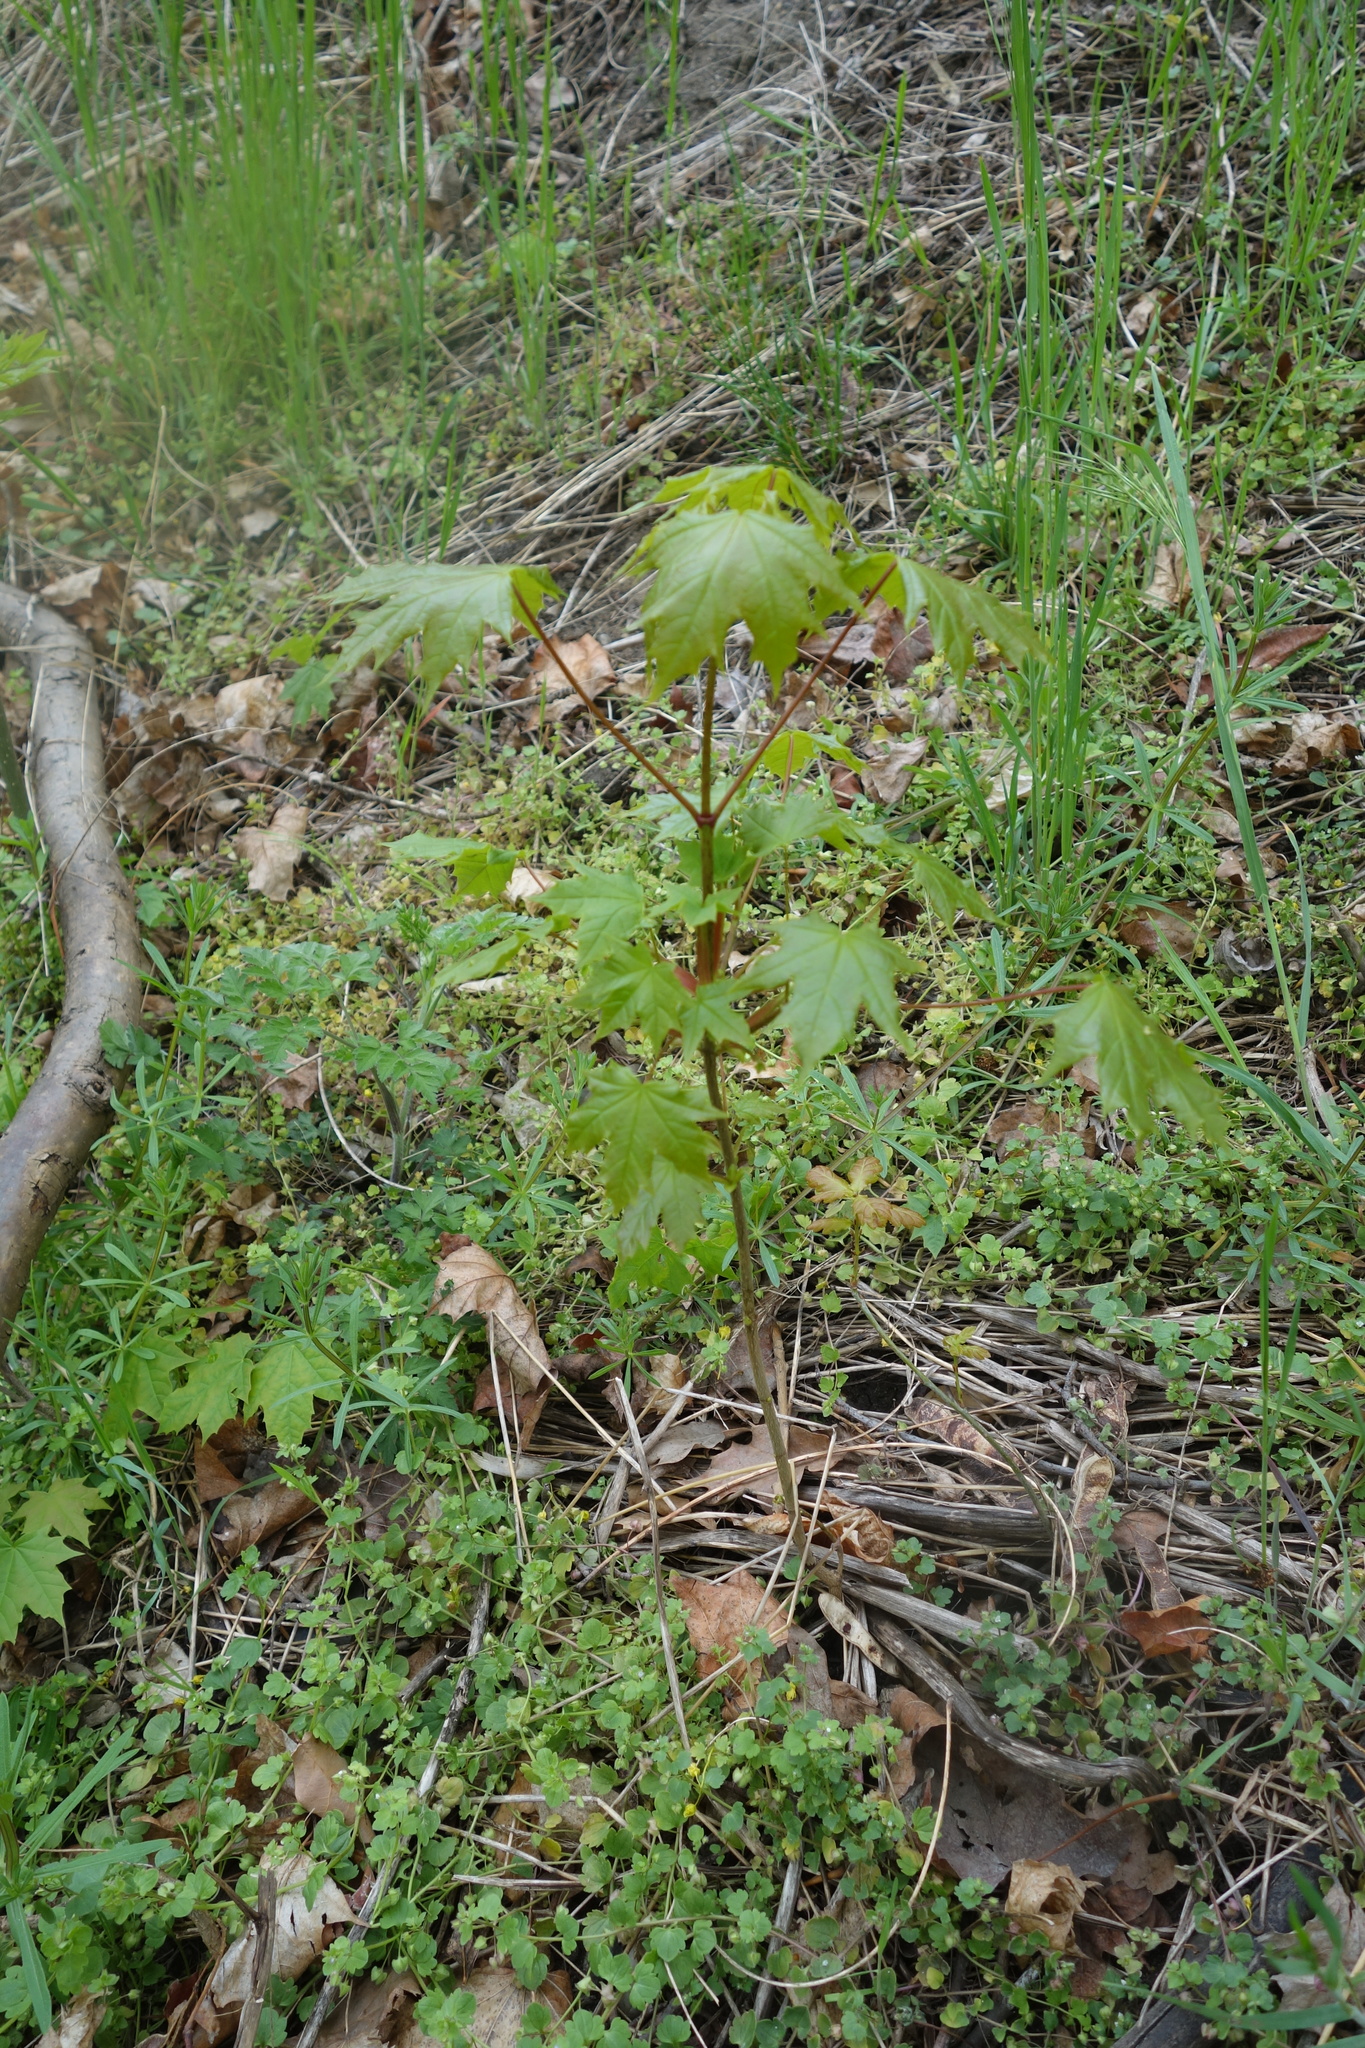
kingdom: Plantae
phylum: Tracheophyta
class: Magnoliopsida
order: Sapindales
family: Sapindaceae
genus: Acer
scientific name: Acer platanoides
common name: Norway maple
